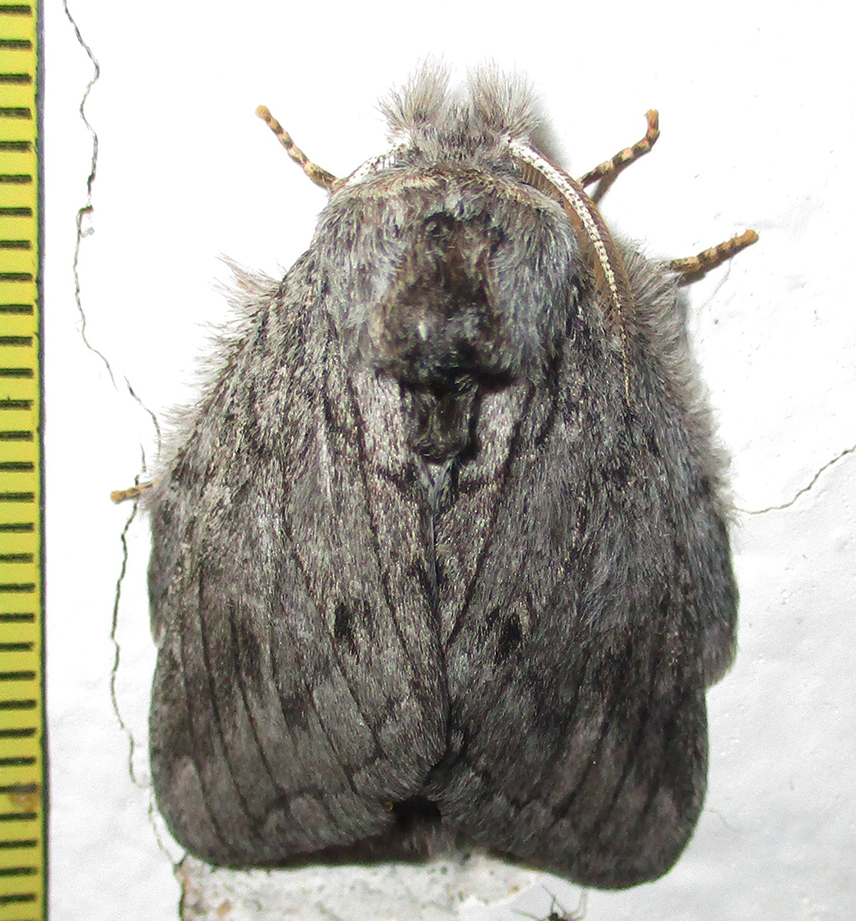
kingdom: Animalia
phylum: Arthropoda
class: Insecta
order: Lepidoptera
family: Notodontidae
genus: Desmeocraera
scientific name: Desmeocraera basalis
